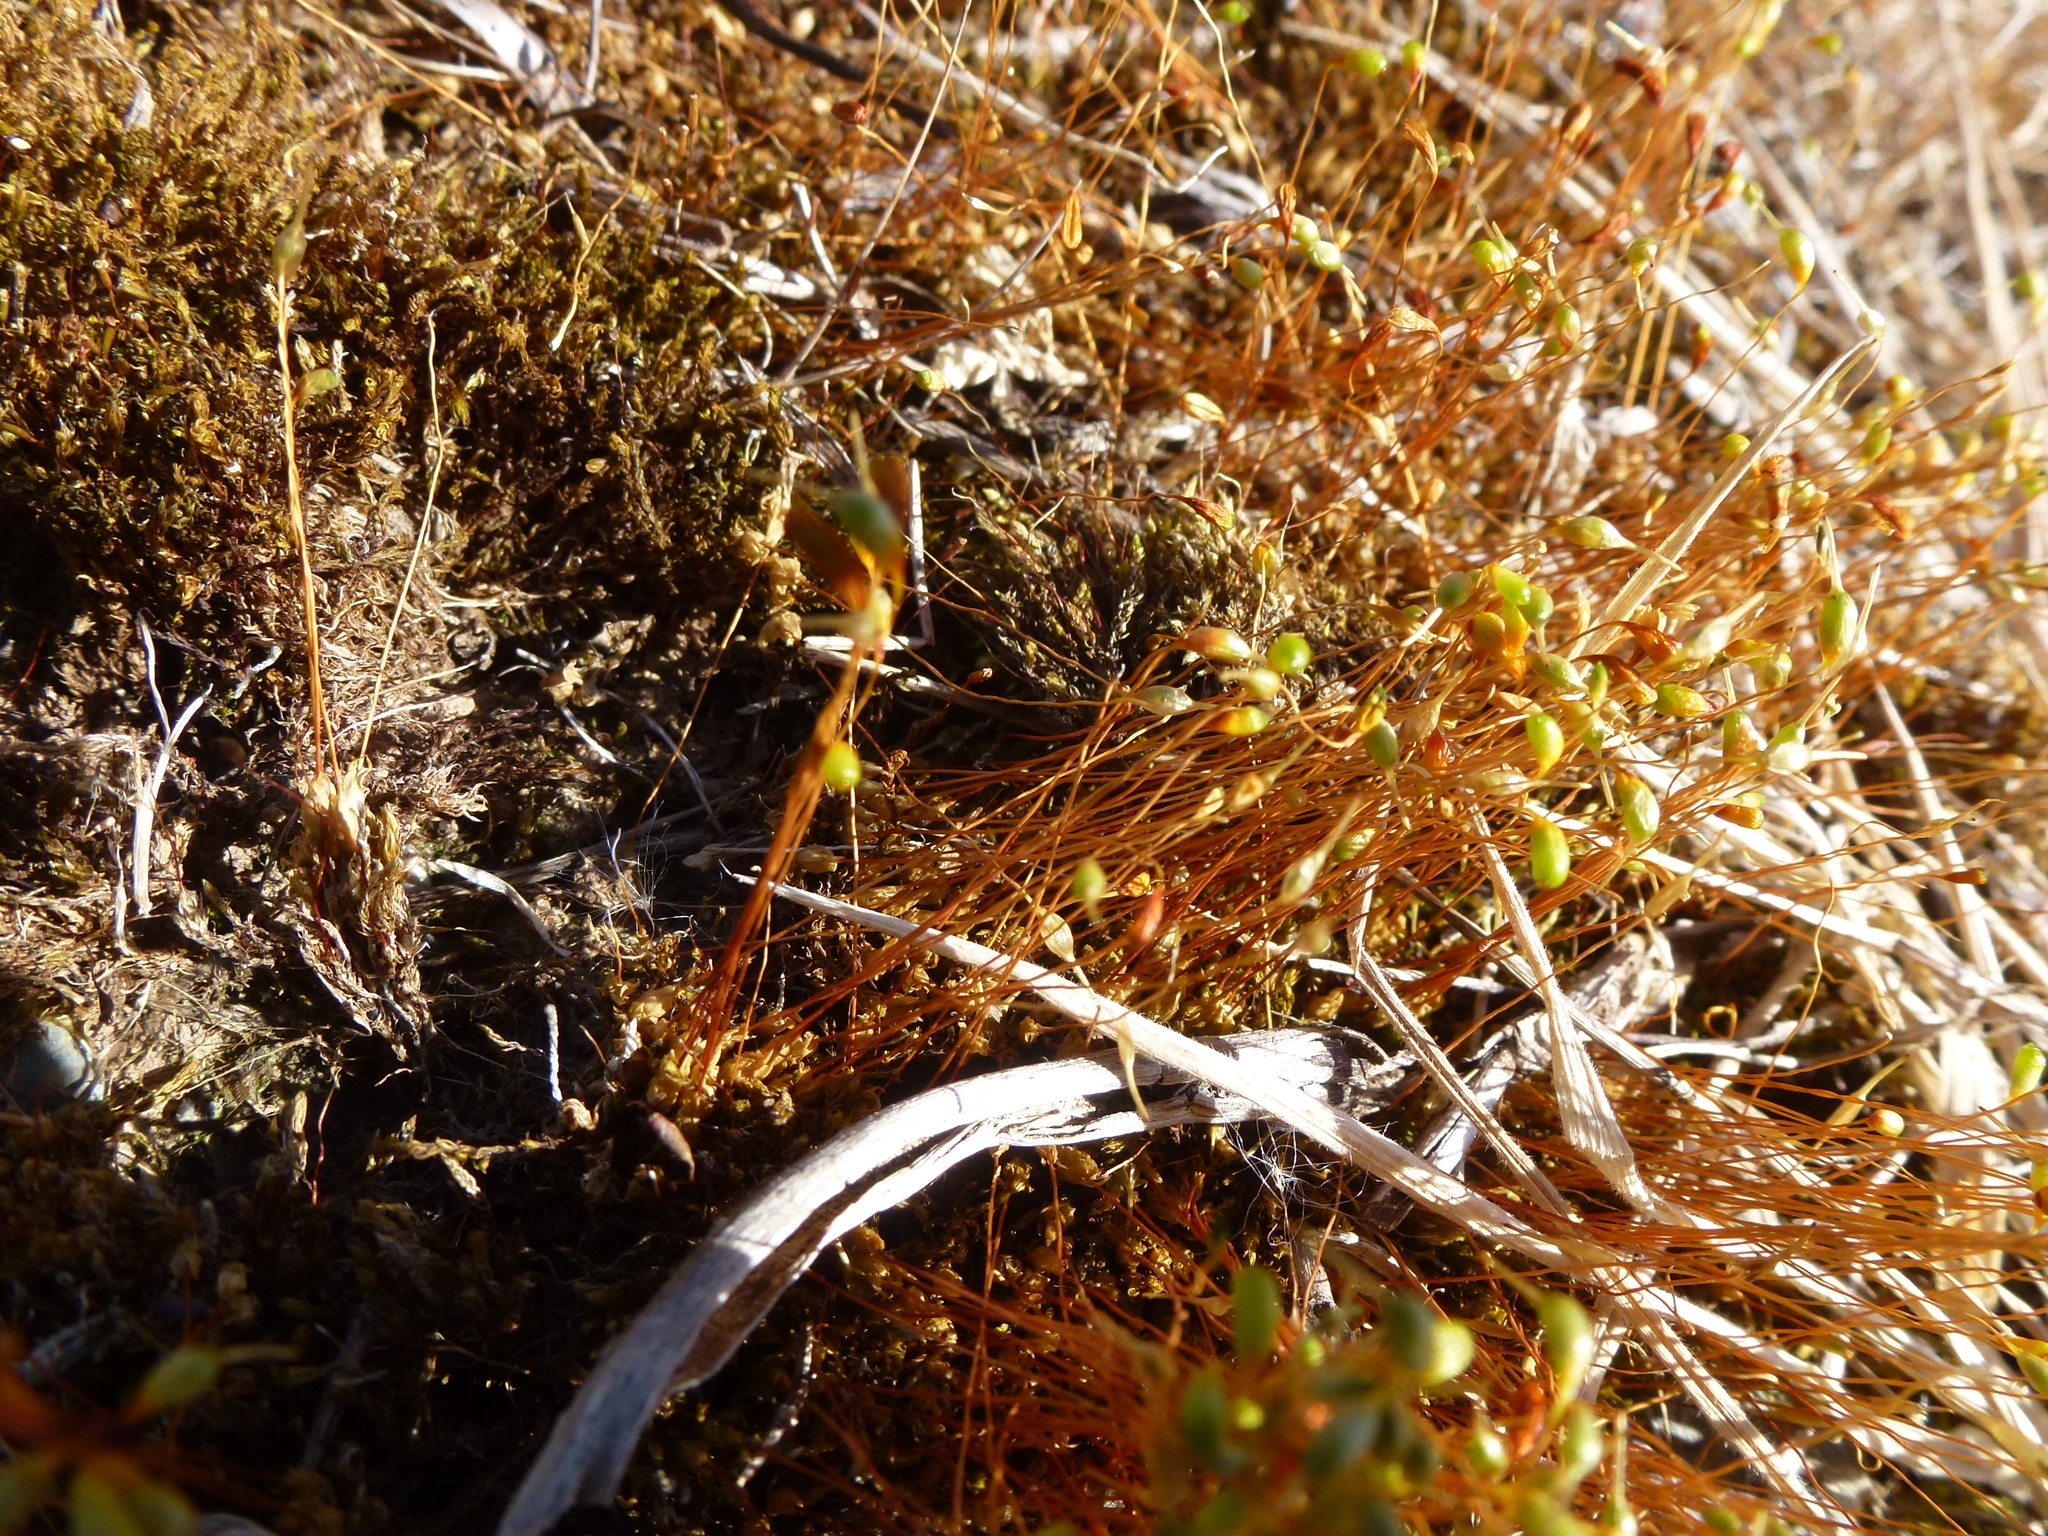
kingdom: Plantae
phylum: Bryophyta
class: Bryopsida
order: Funariales
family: Funariaceae
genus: Funaria
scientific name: Funaria hygrometrica
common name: Common cord moss
